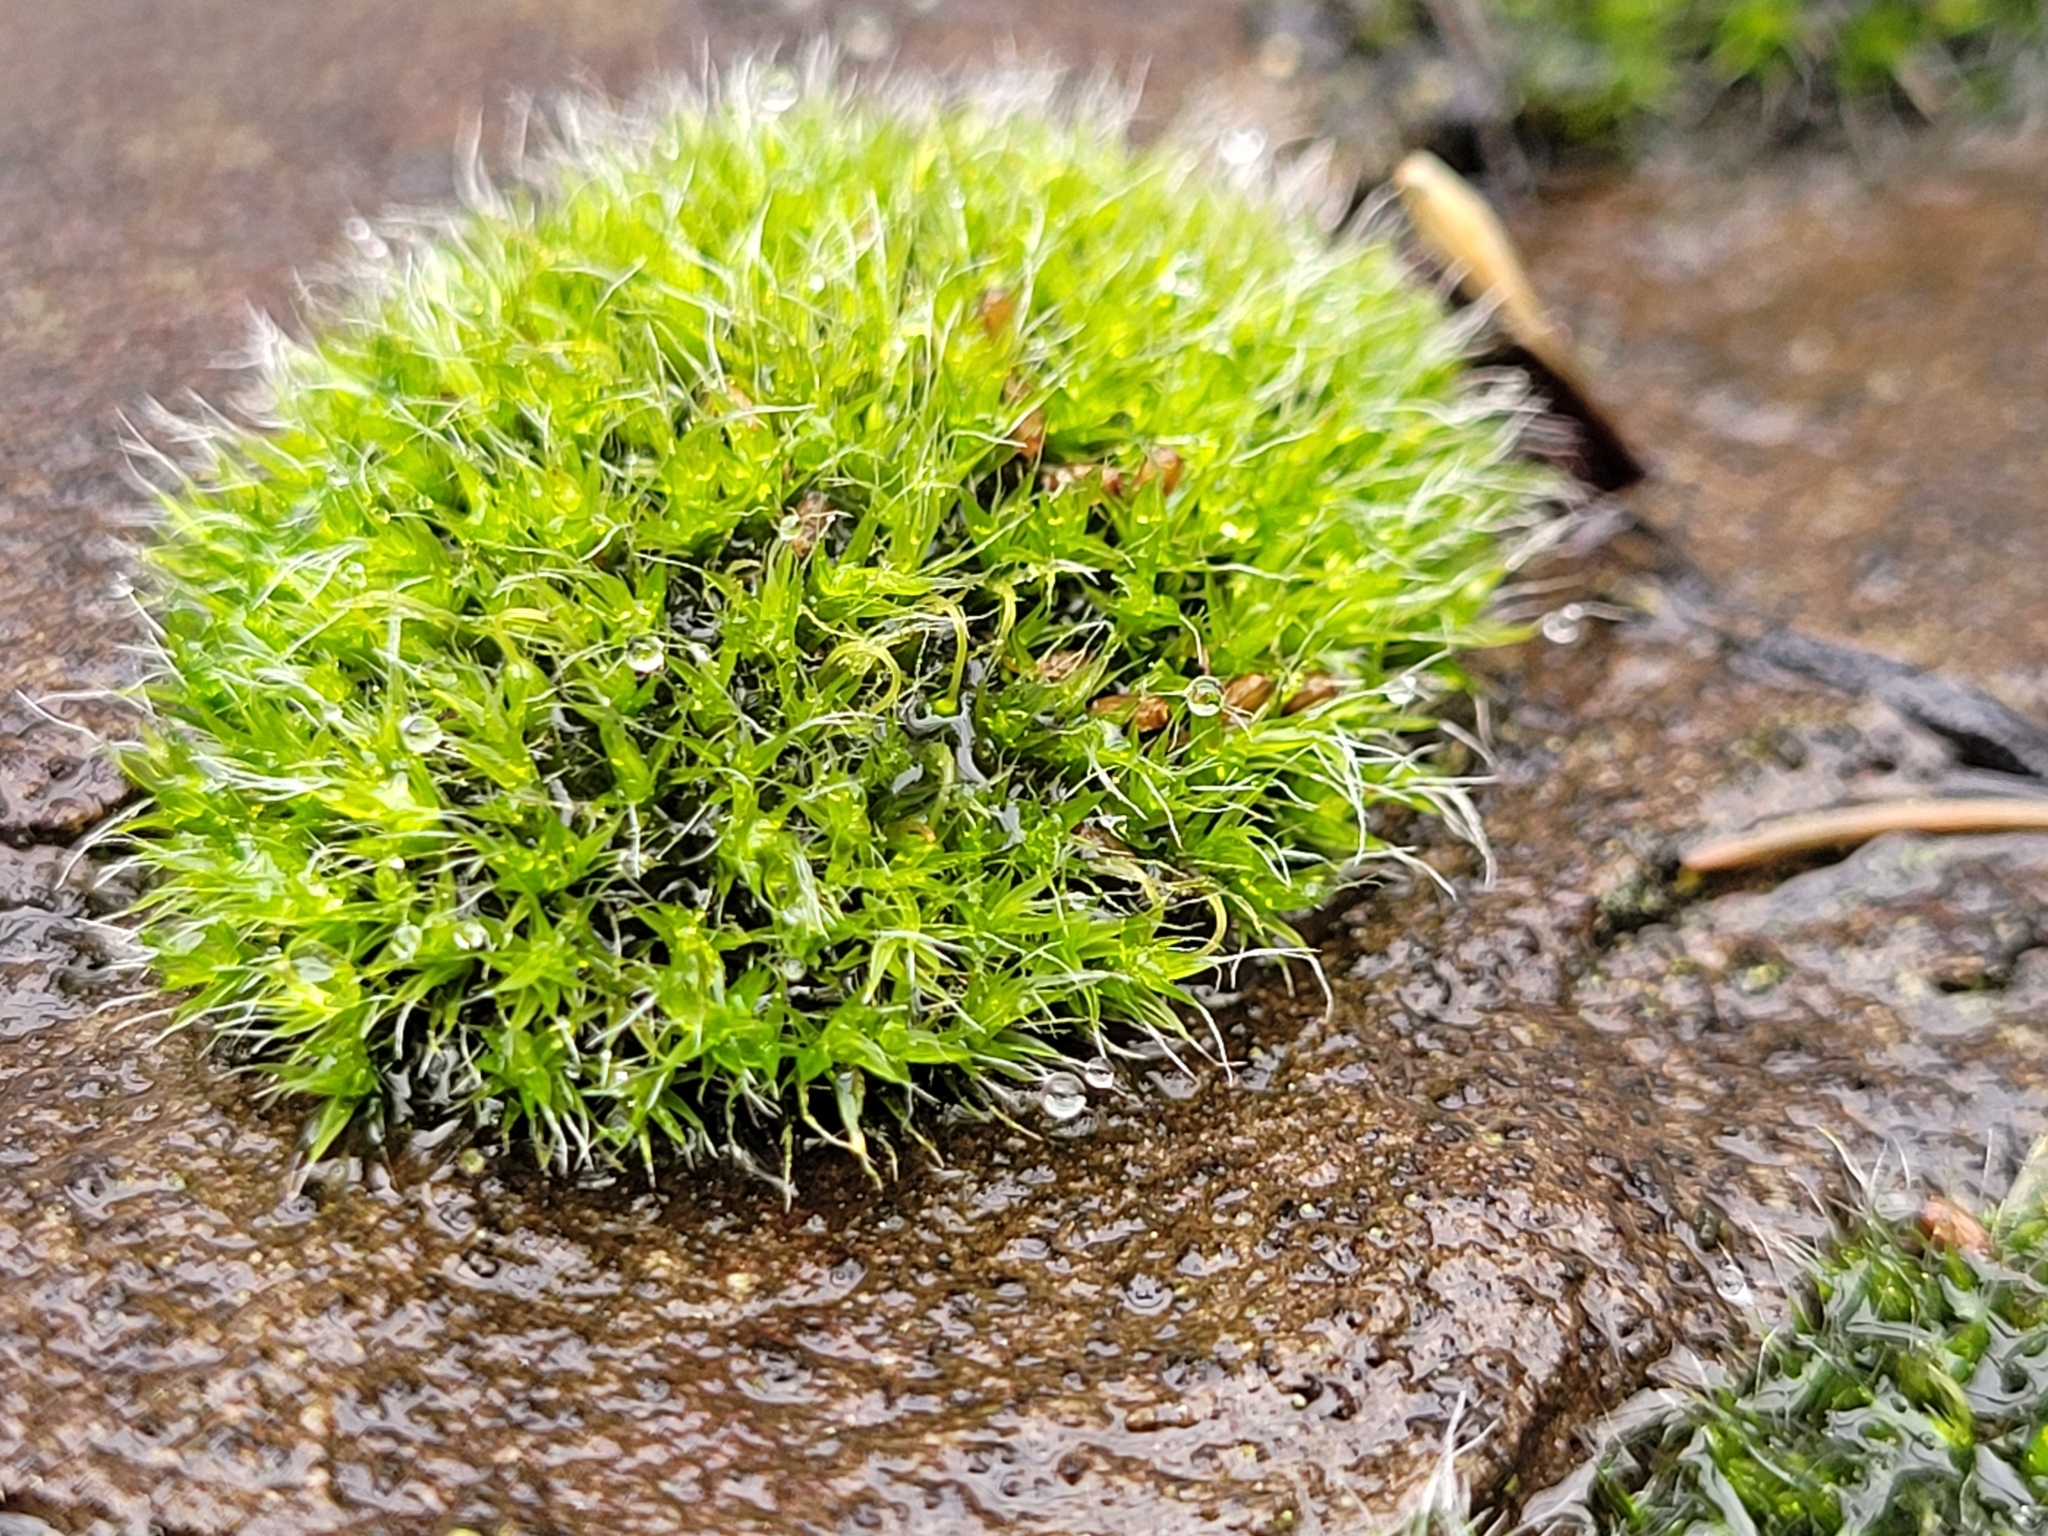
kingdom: Plantae
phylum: Bryophyta
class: Bryopsida
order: Grimmiales
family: Grimmiaceae
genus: Grimmia
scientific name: Grimmia pulvinata
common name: Grey-cushioned grimmia
